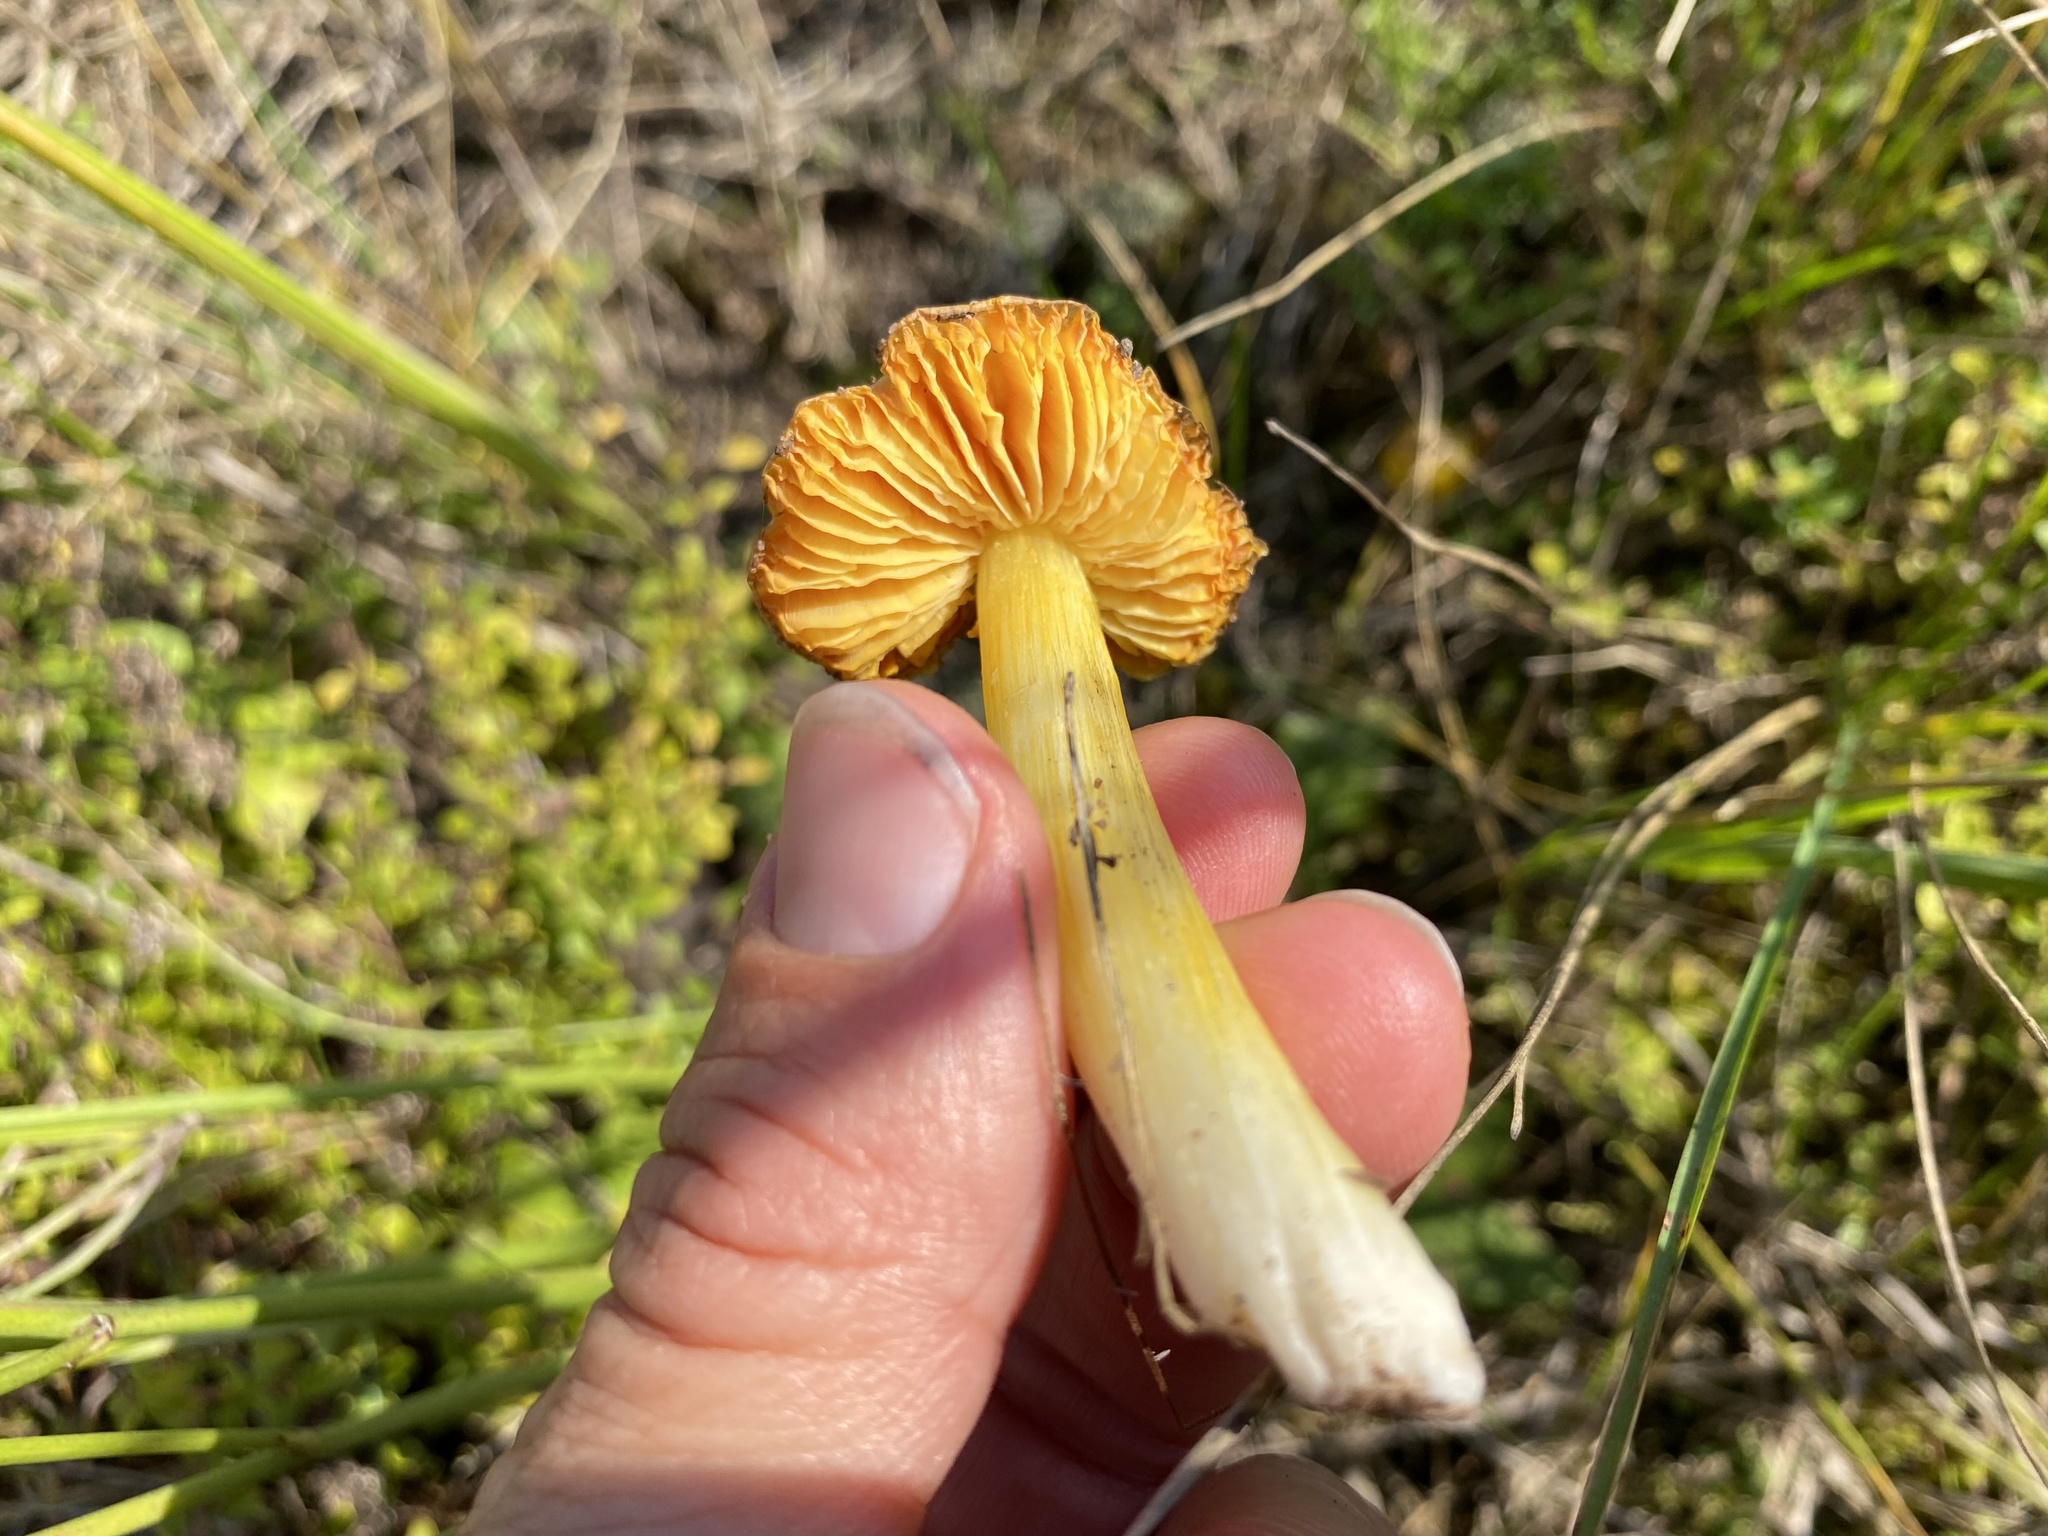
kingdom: Fungi
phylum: Basidiomycota
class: Agaricomycetes
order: Agaricales
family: Hygrophoraceae
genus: Hygrocybe
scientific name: Hygrocybe acutoconica
